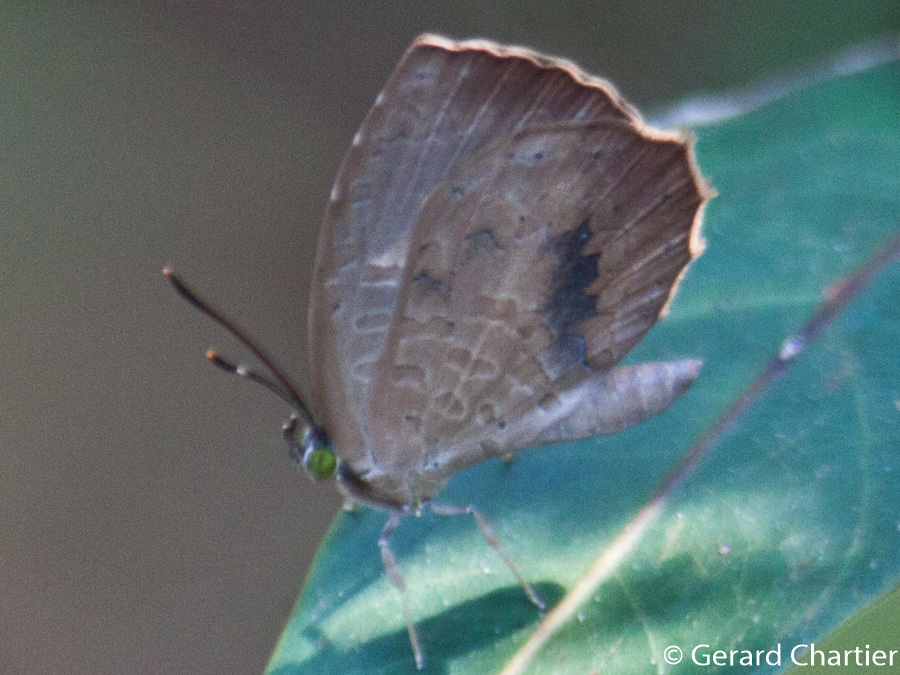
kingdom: Animalia
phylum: Arthropoda
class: Insecta
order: Lepidoptera
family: Lycaenidae
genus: Miletus
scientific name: Miletus mallus
